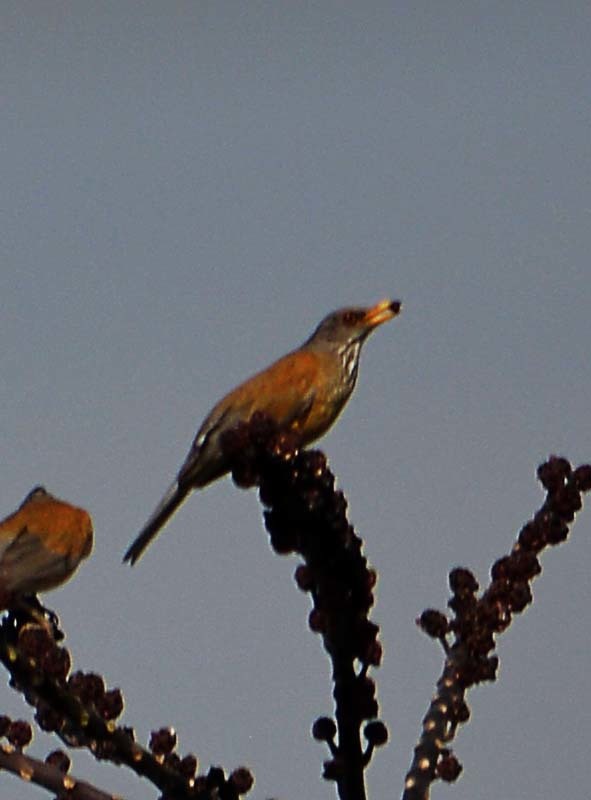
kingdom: Animalia
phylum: Chordata
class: Aves
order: Passeriformes
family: Turdidae
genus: Turdus
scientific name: Turdus rufopalliatus
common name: Rufous-backed robin
